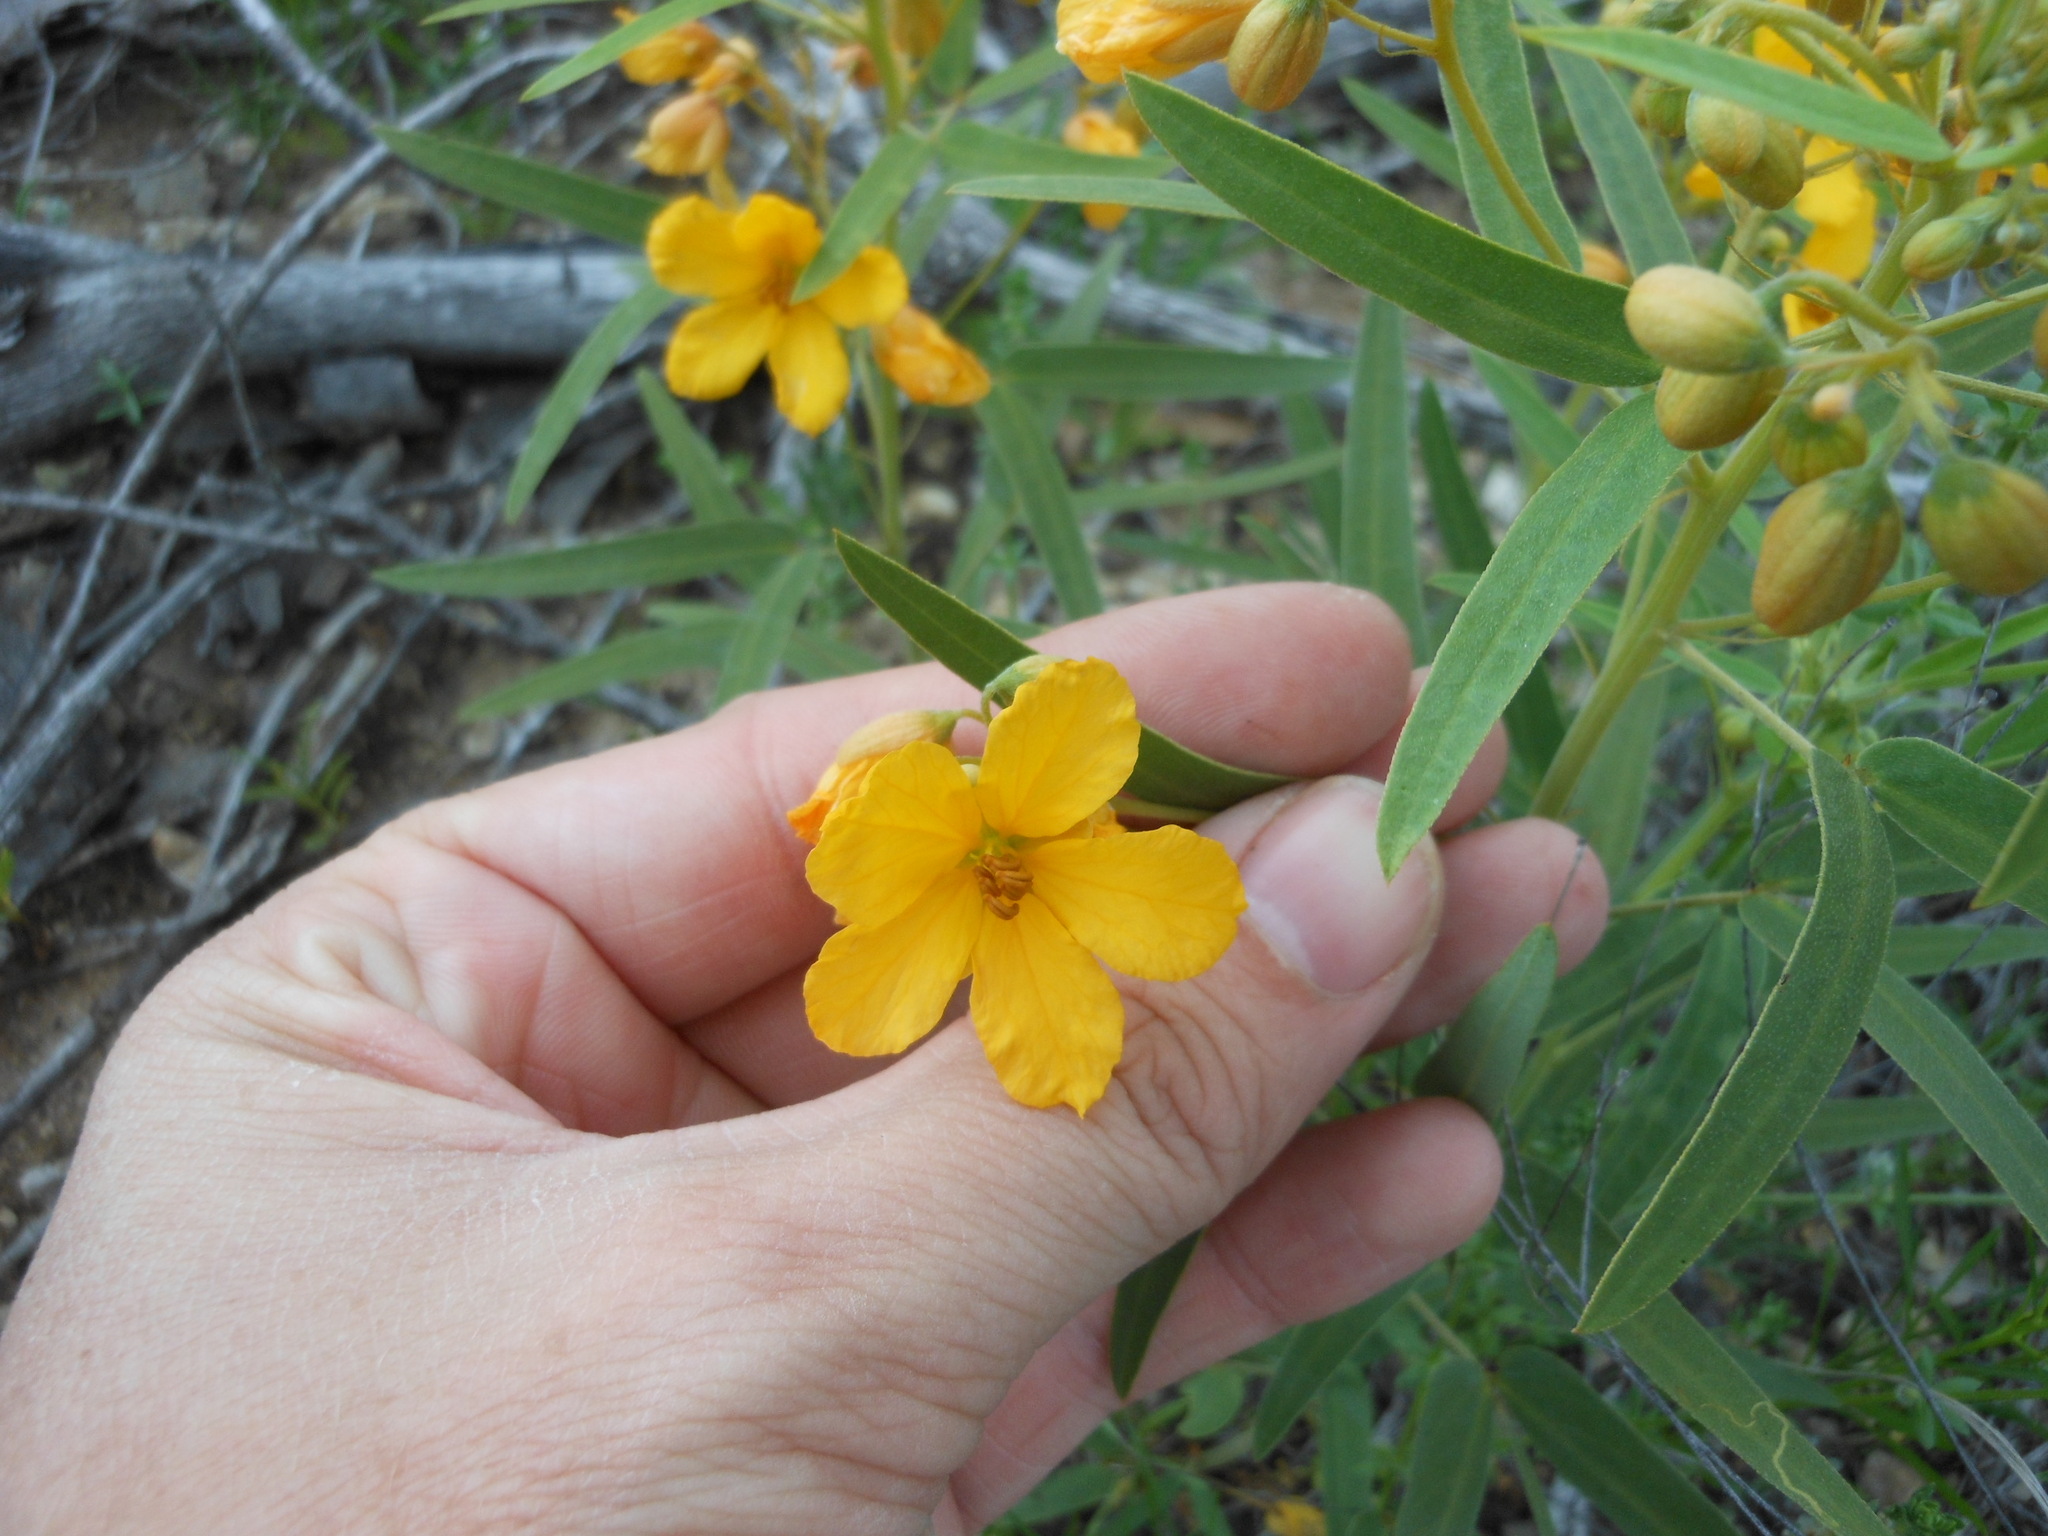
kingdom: Plantae
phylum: Tracheophyta
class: Magnoliopsida
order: Fabales
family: Fabaceae
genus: Senna
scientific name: Senna roemeriana
